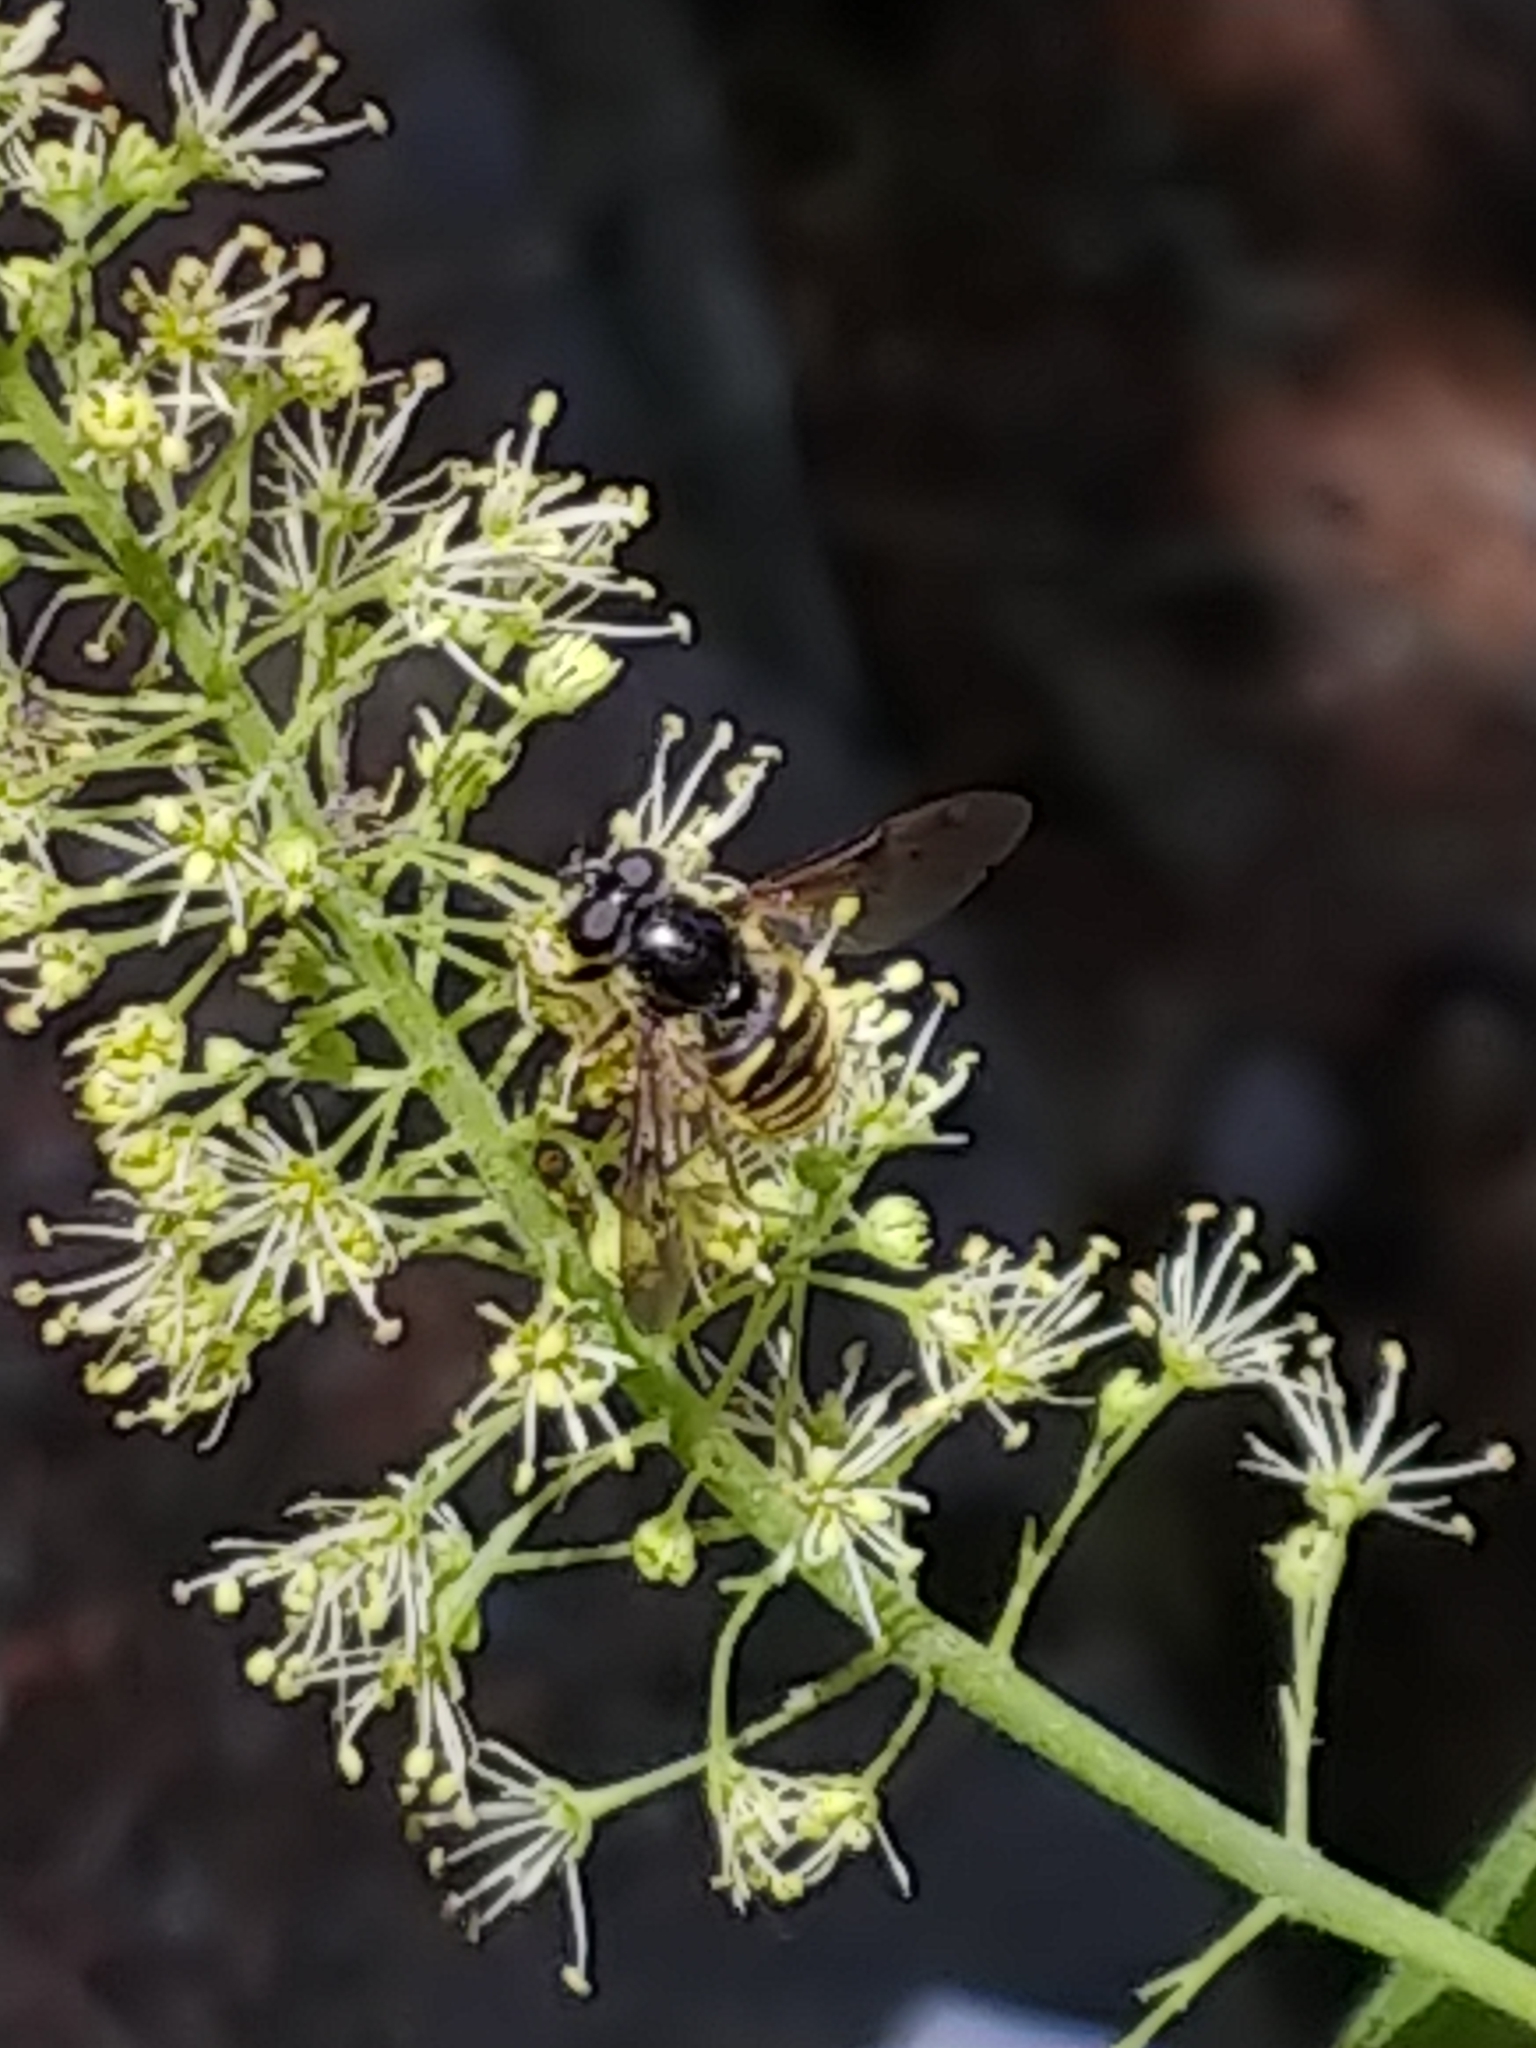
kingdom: Animalia
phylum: Arthropoda
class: Insecta
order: Diptera
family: Syrphidae
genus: Sericomyia
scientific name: Sericomyia bifasciata
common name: Long-nosed pond fly
